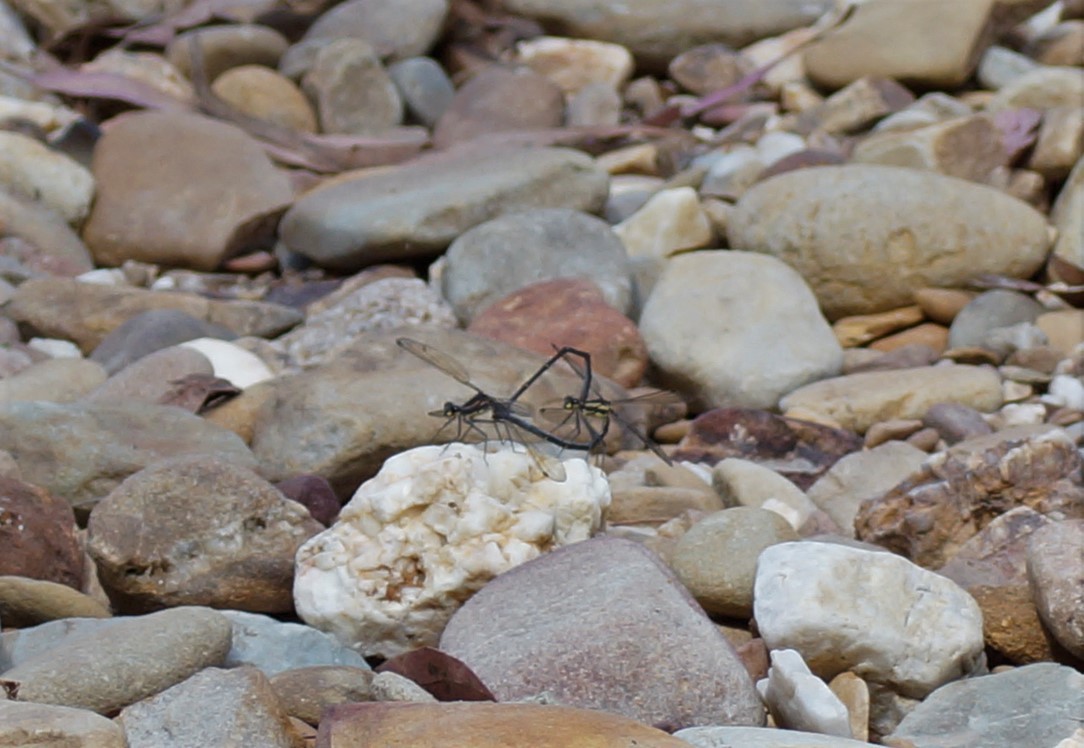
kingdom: Animalia
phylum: Arthropoda
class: Insecta
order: Odonata
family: Argiolestidae
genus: Austroargiolestes
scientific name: Austroargiolestes icteromelas
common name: Common flatwing
